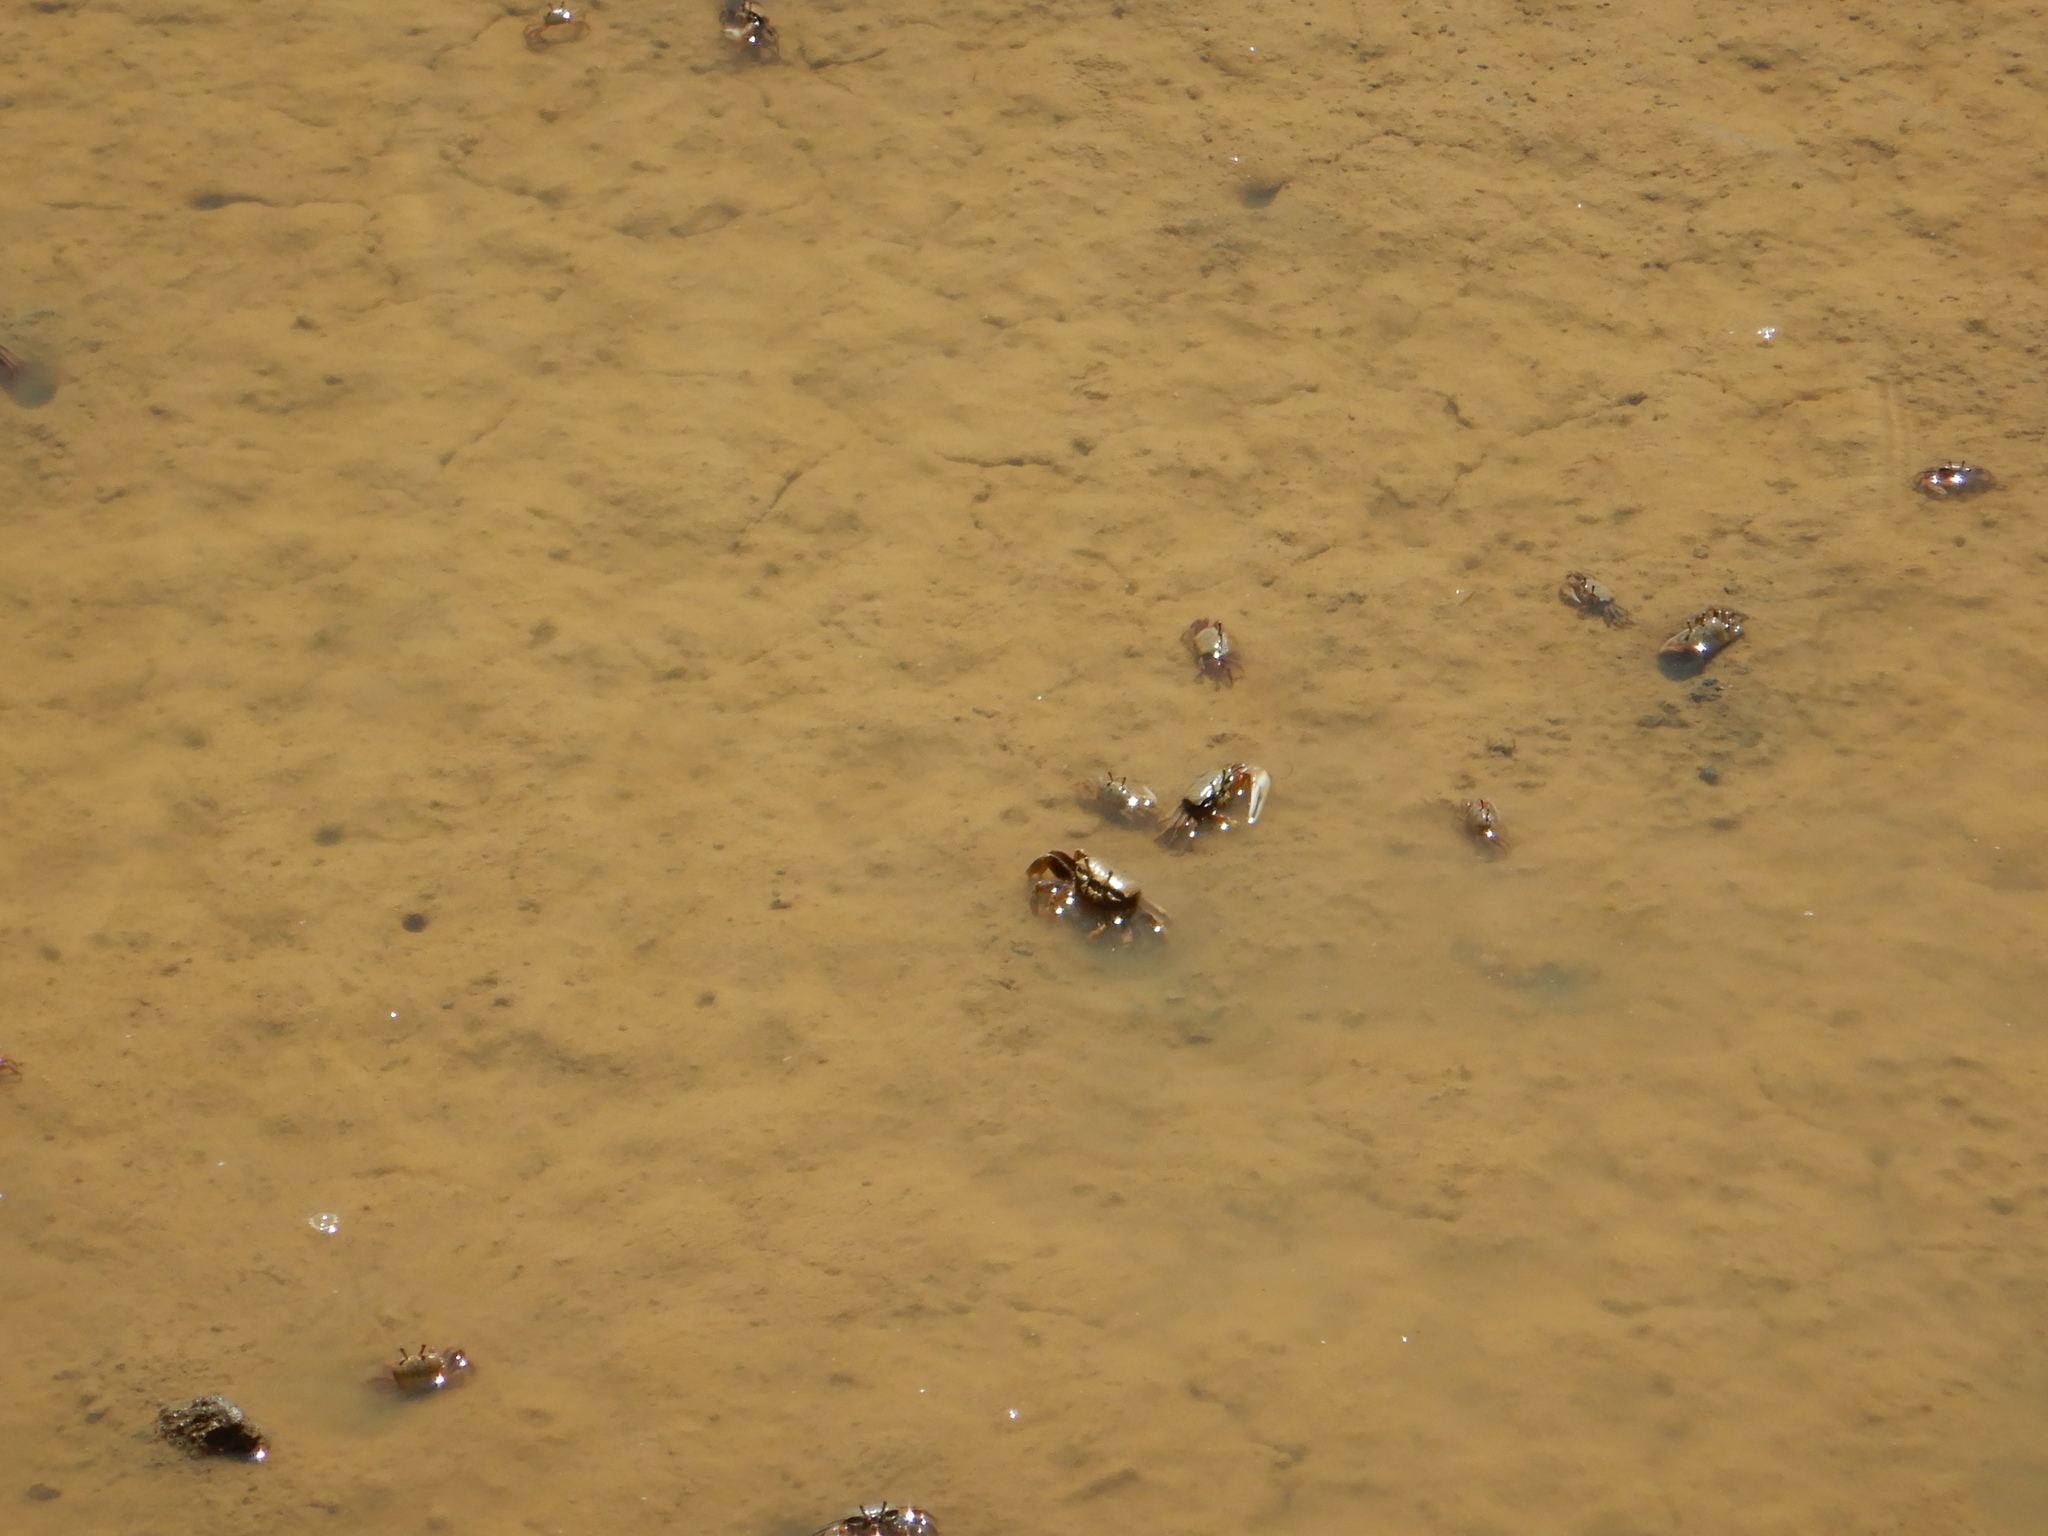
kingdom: Animalia
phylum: Arthropoda
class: Malacostraca
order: Decapoda
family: Ocypodidae
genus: Afruca
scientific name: Afruca tangeri
